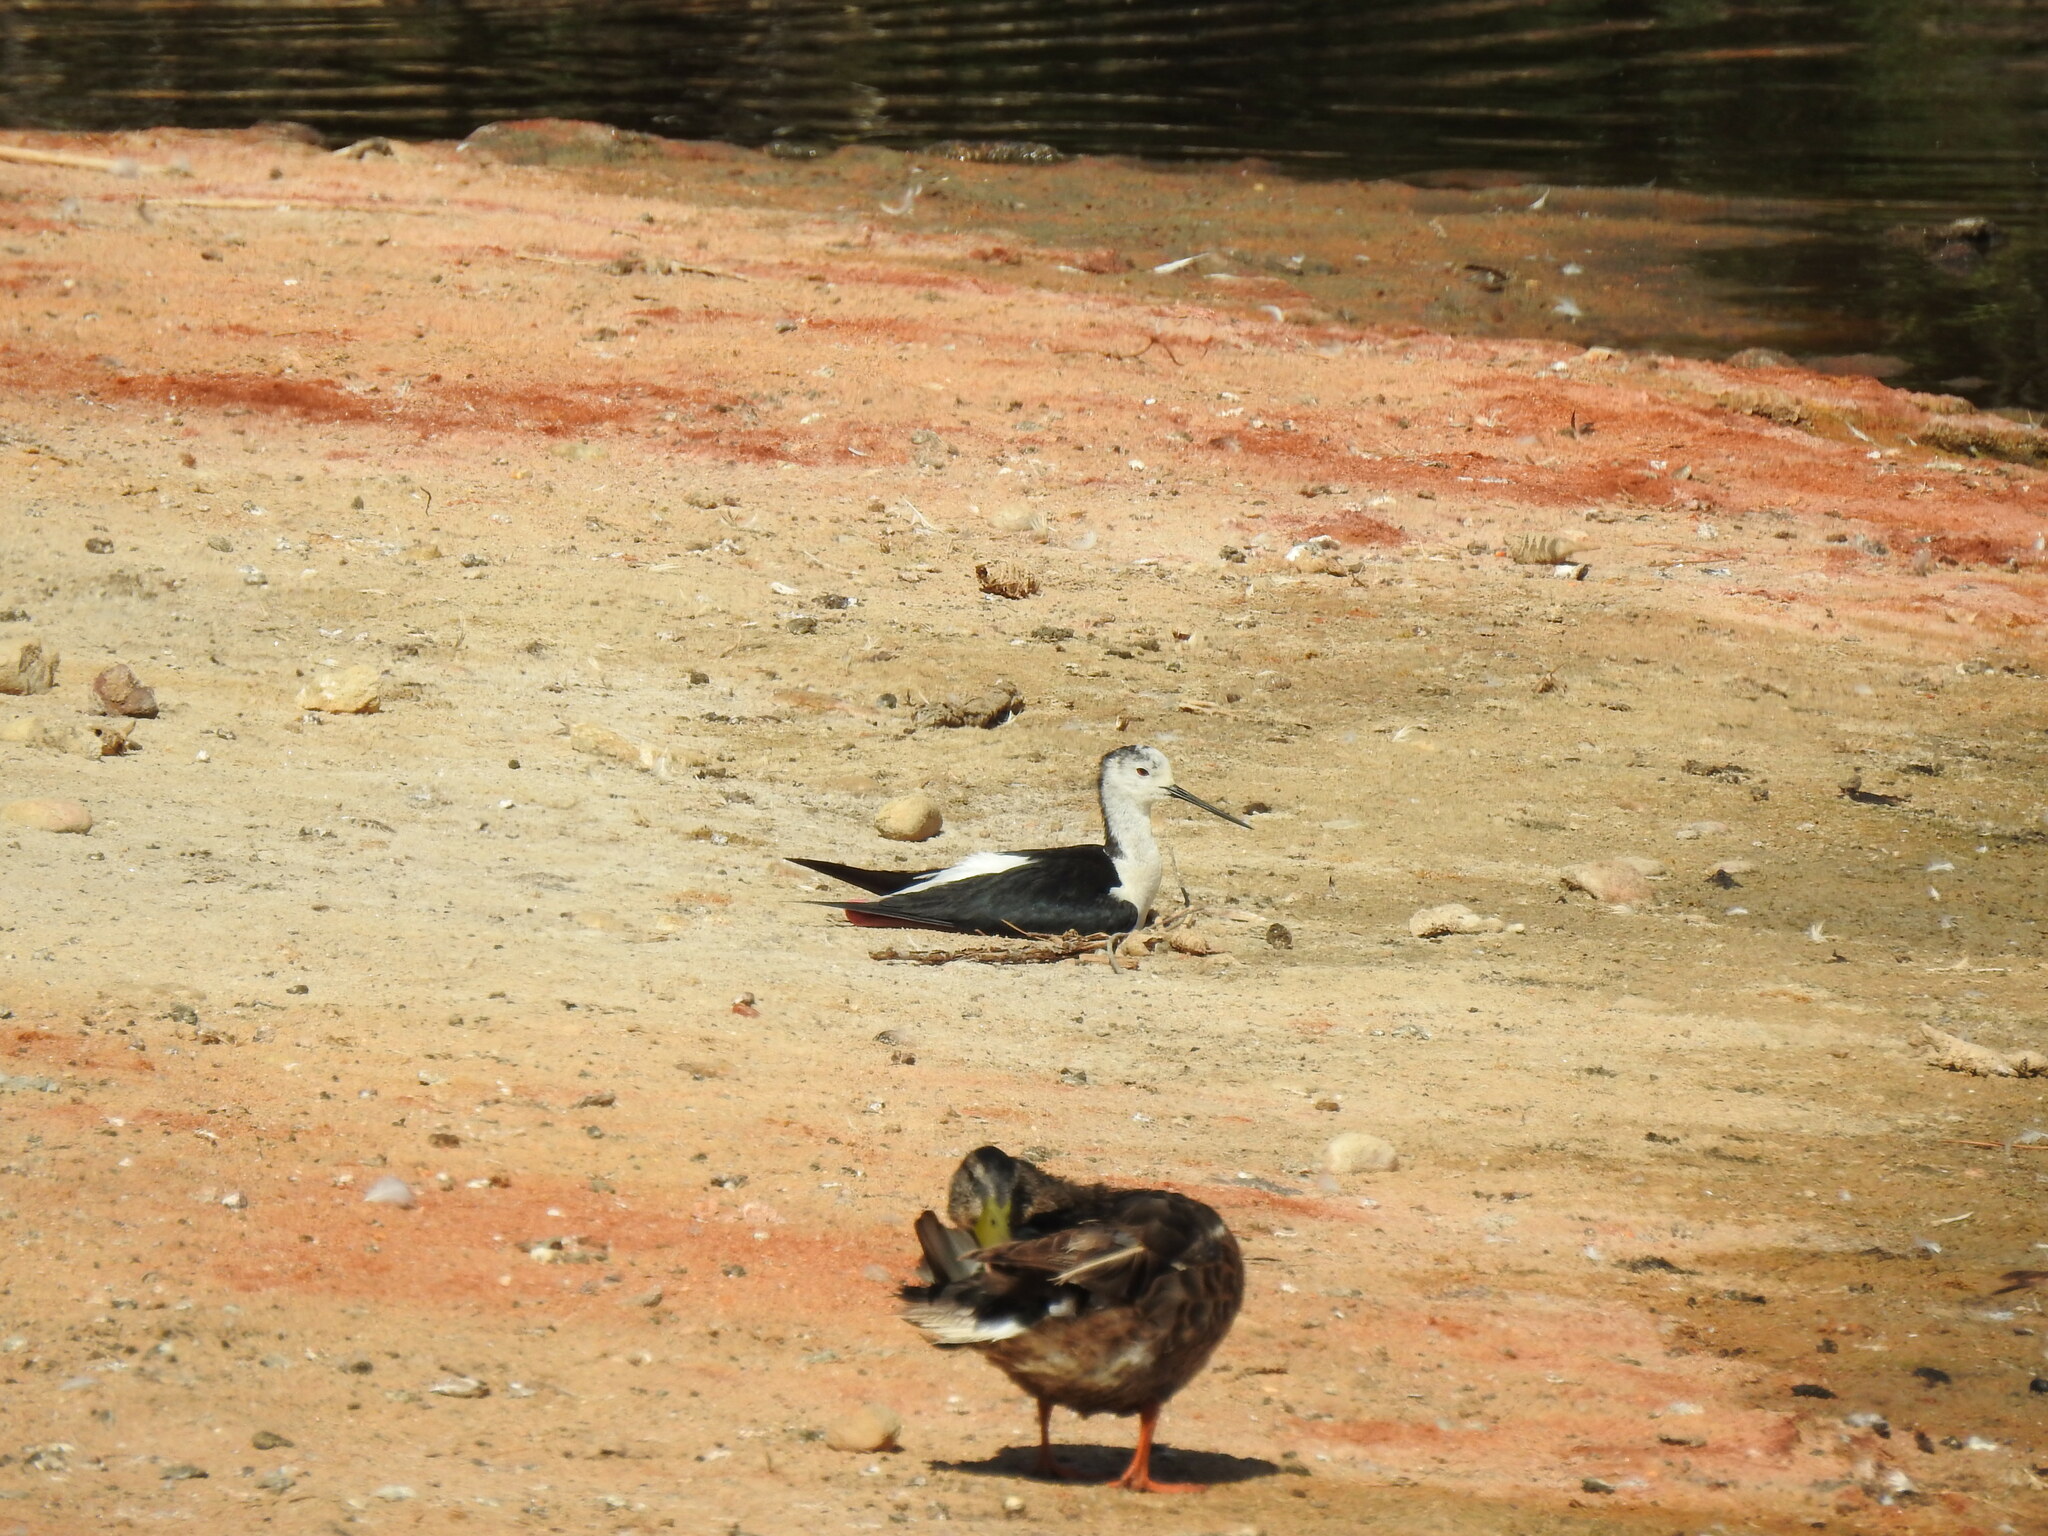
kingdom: Animalia
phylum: Chordata
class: Aves
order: Charadriiformes
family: Recurvirostridae
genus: Himantopus
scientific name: Himantopus himantopus
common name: Black-winged stilt
